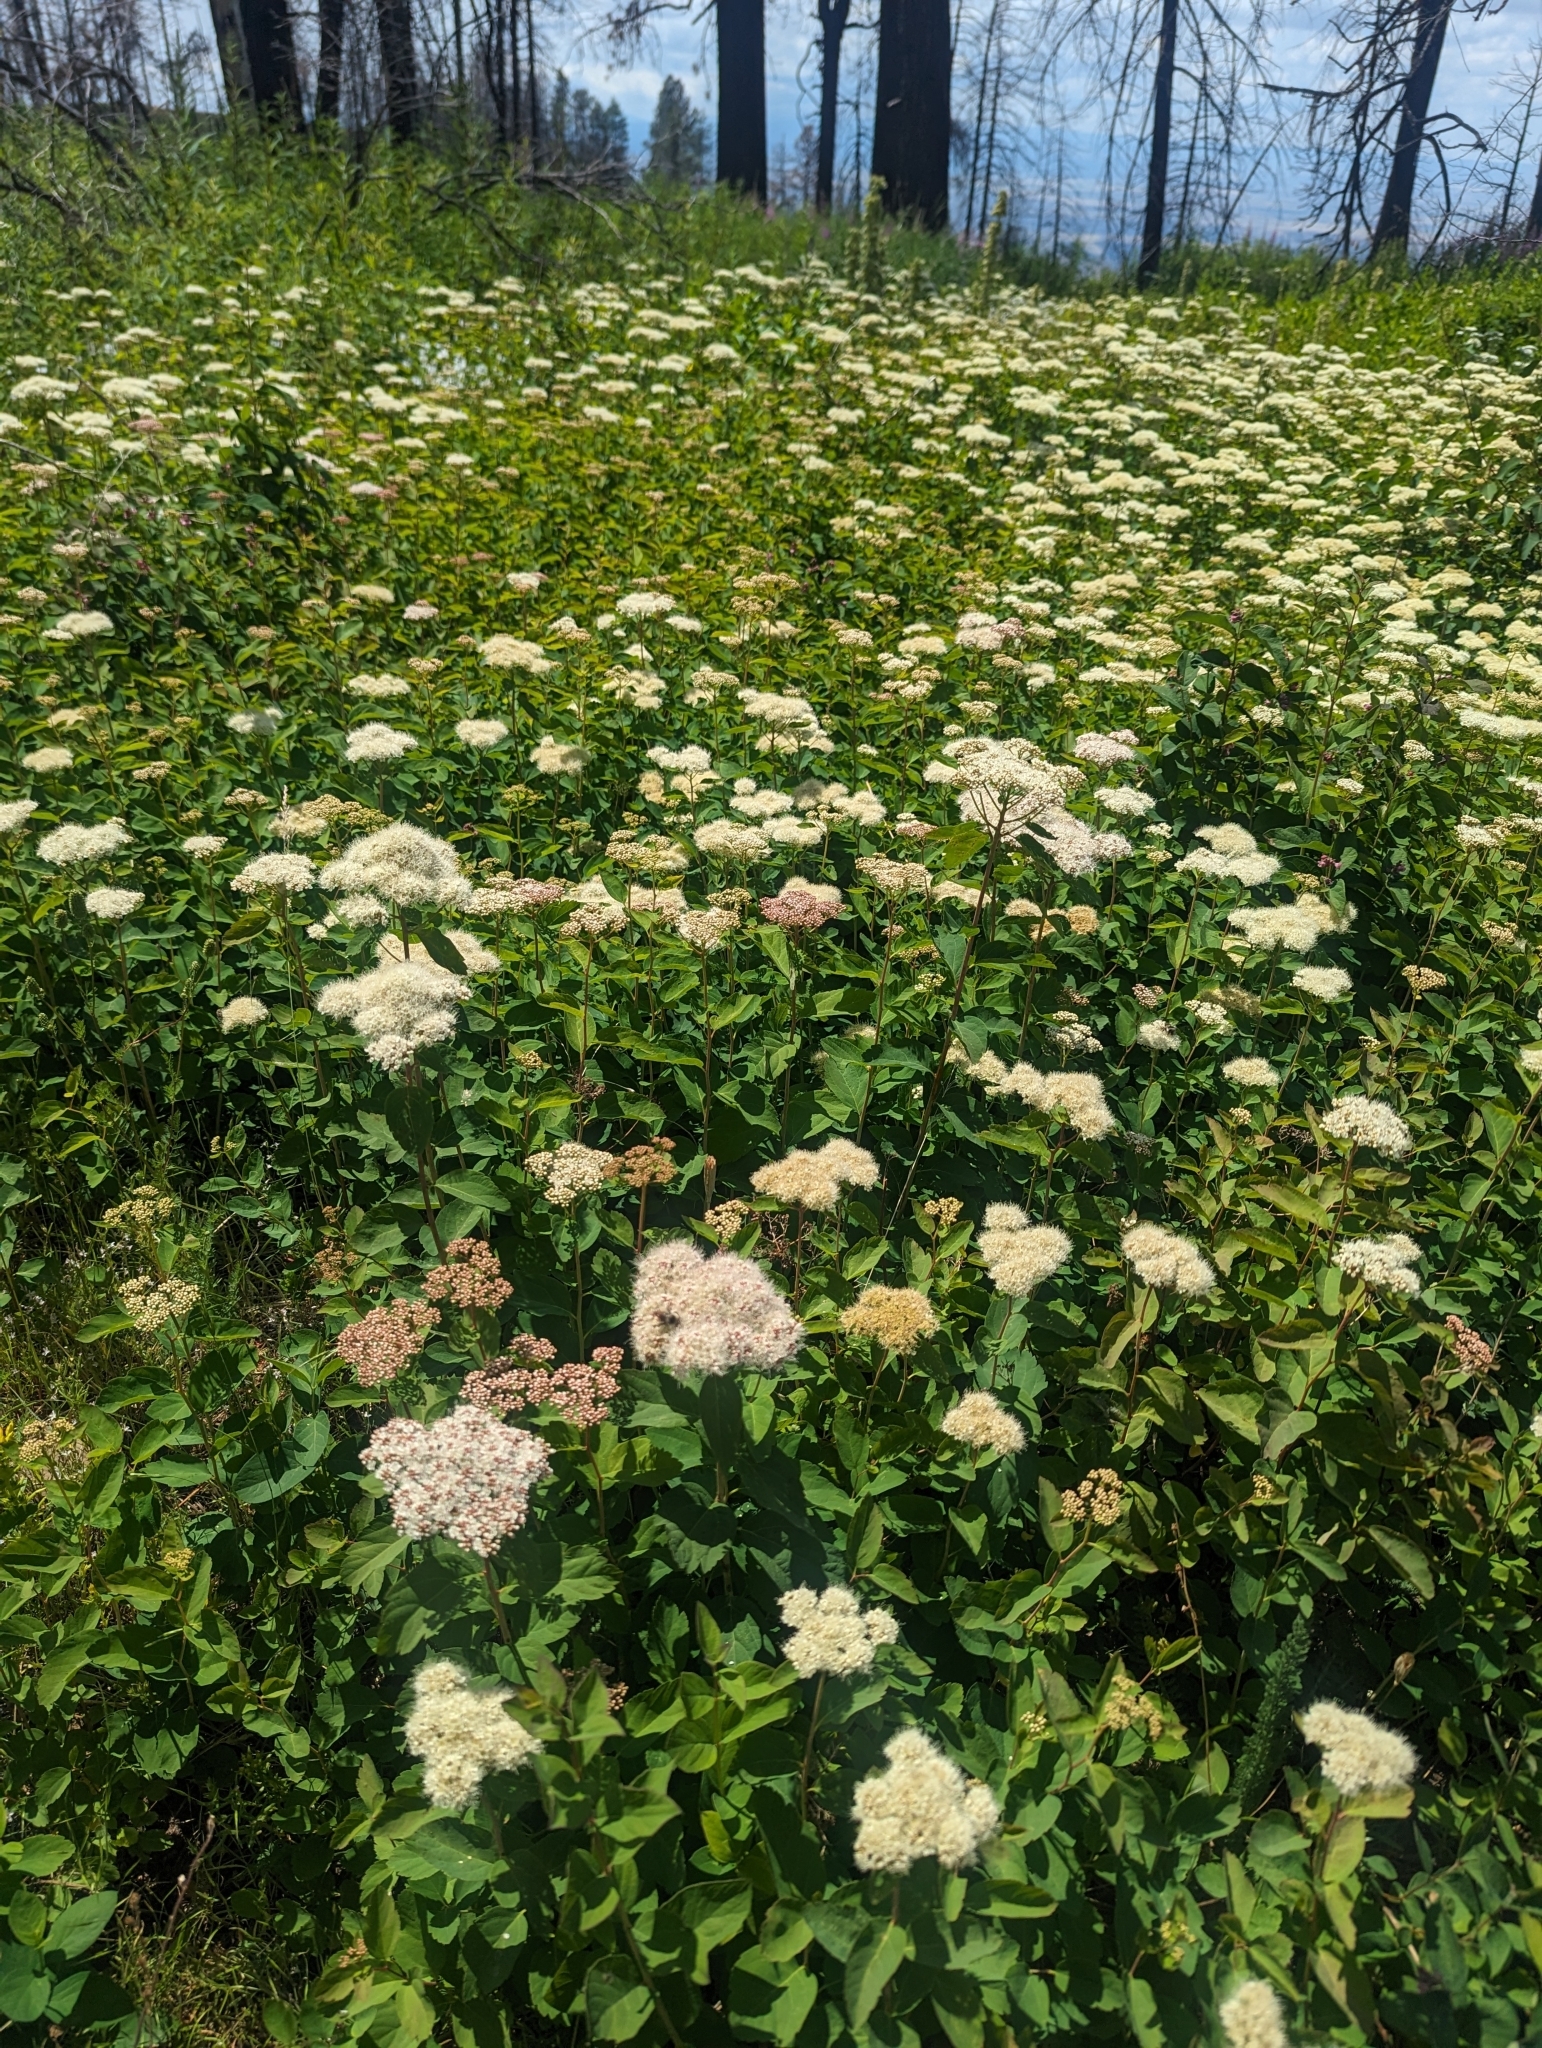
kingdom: Plantae
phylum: Tracheophyta
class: Magnoliopsida
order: Rosales
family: Rosaceae
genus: Spiraea
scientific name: Spiraea lucida
